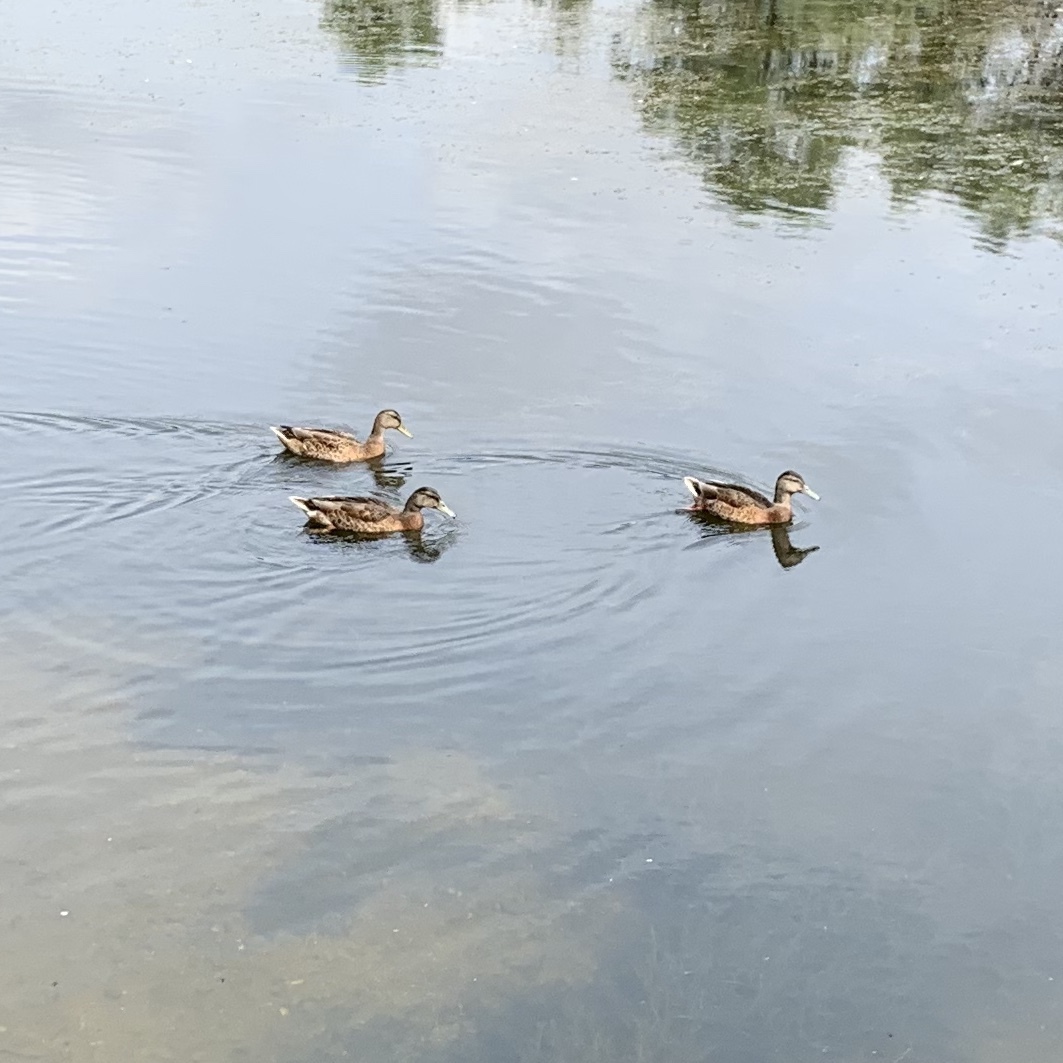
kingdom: Animalia
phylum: Chordata
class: Aves
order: Anseriformes
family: Anatidae
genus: Anas
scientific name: Anas platyrhynchos
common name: Mallard
